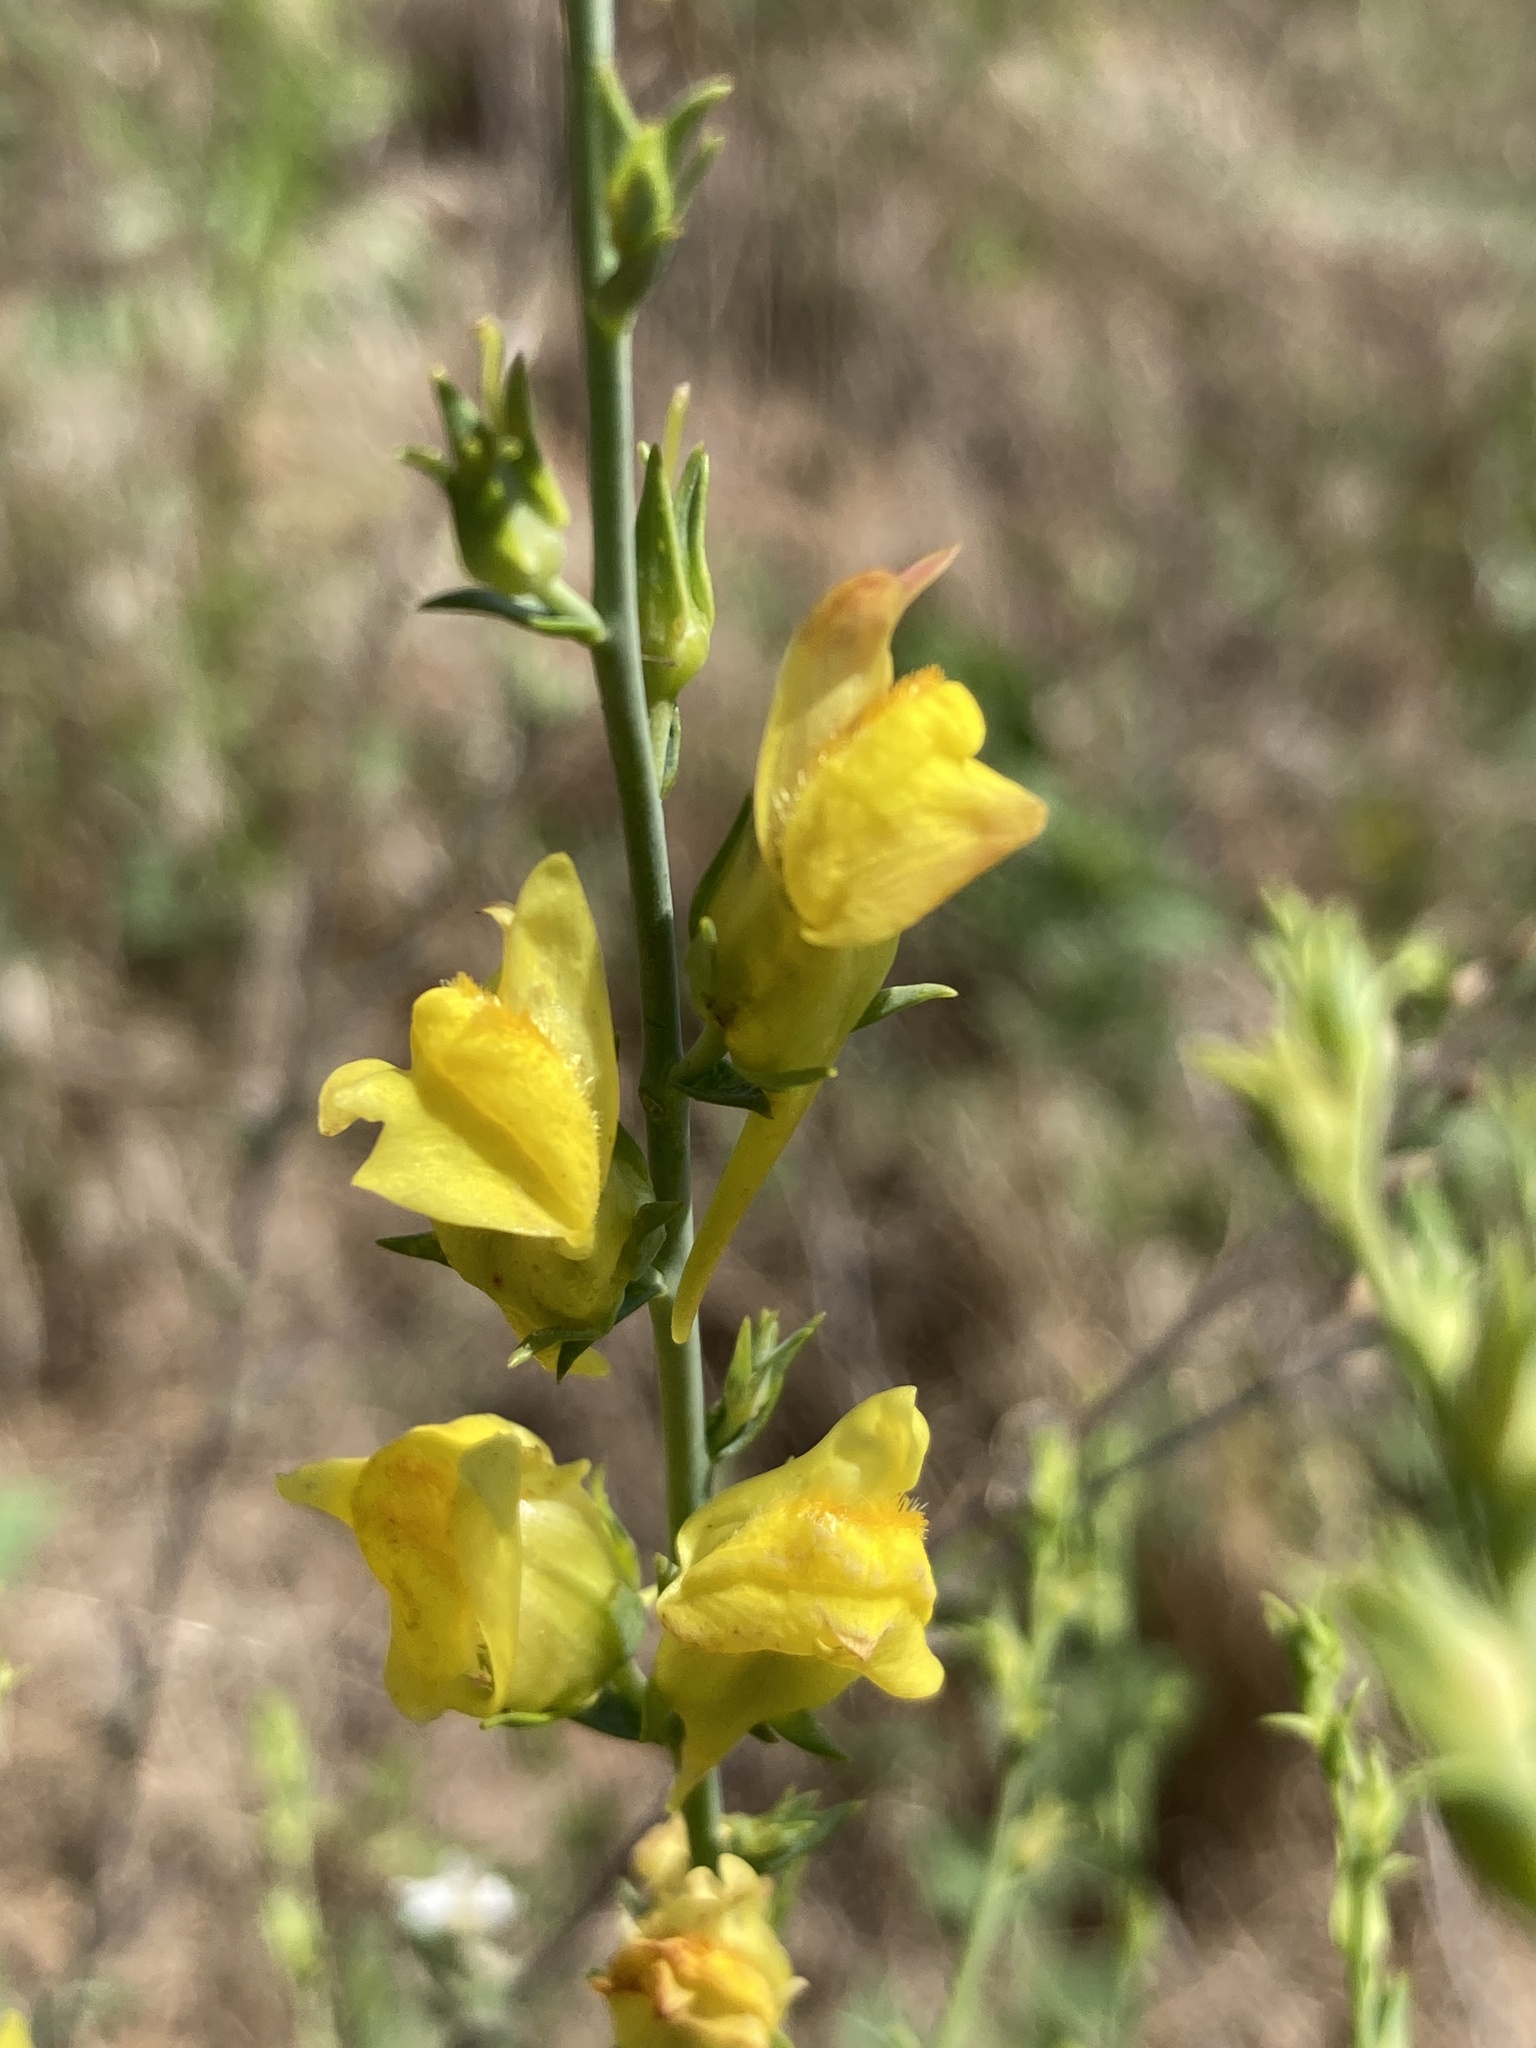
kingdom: Plantae
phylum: Tracheophyta
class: Magnoliopsida
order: Lamiales
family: Plantaginaceae
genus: Linaria
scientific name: Linaria genistifolia
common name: Broomleaf toadflax
